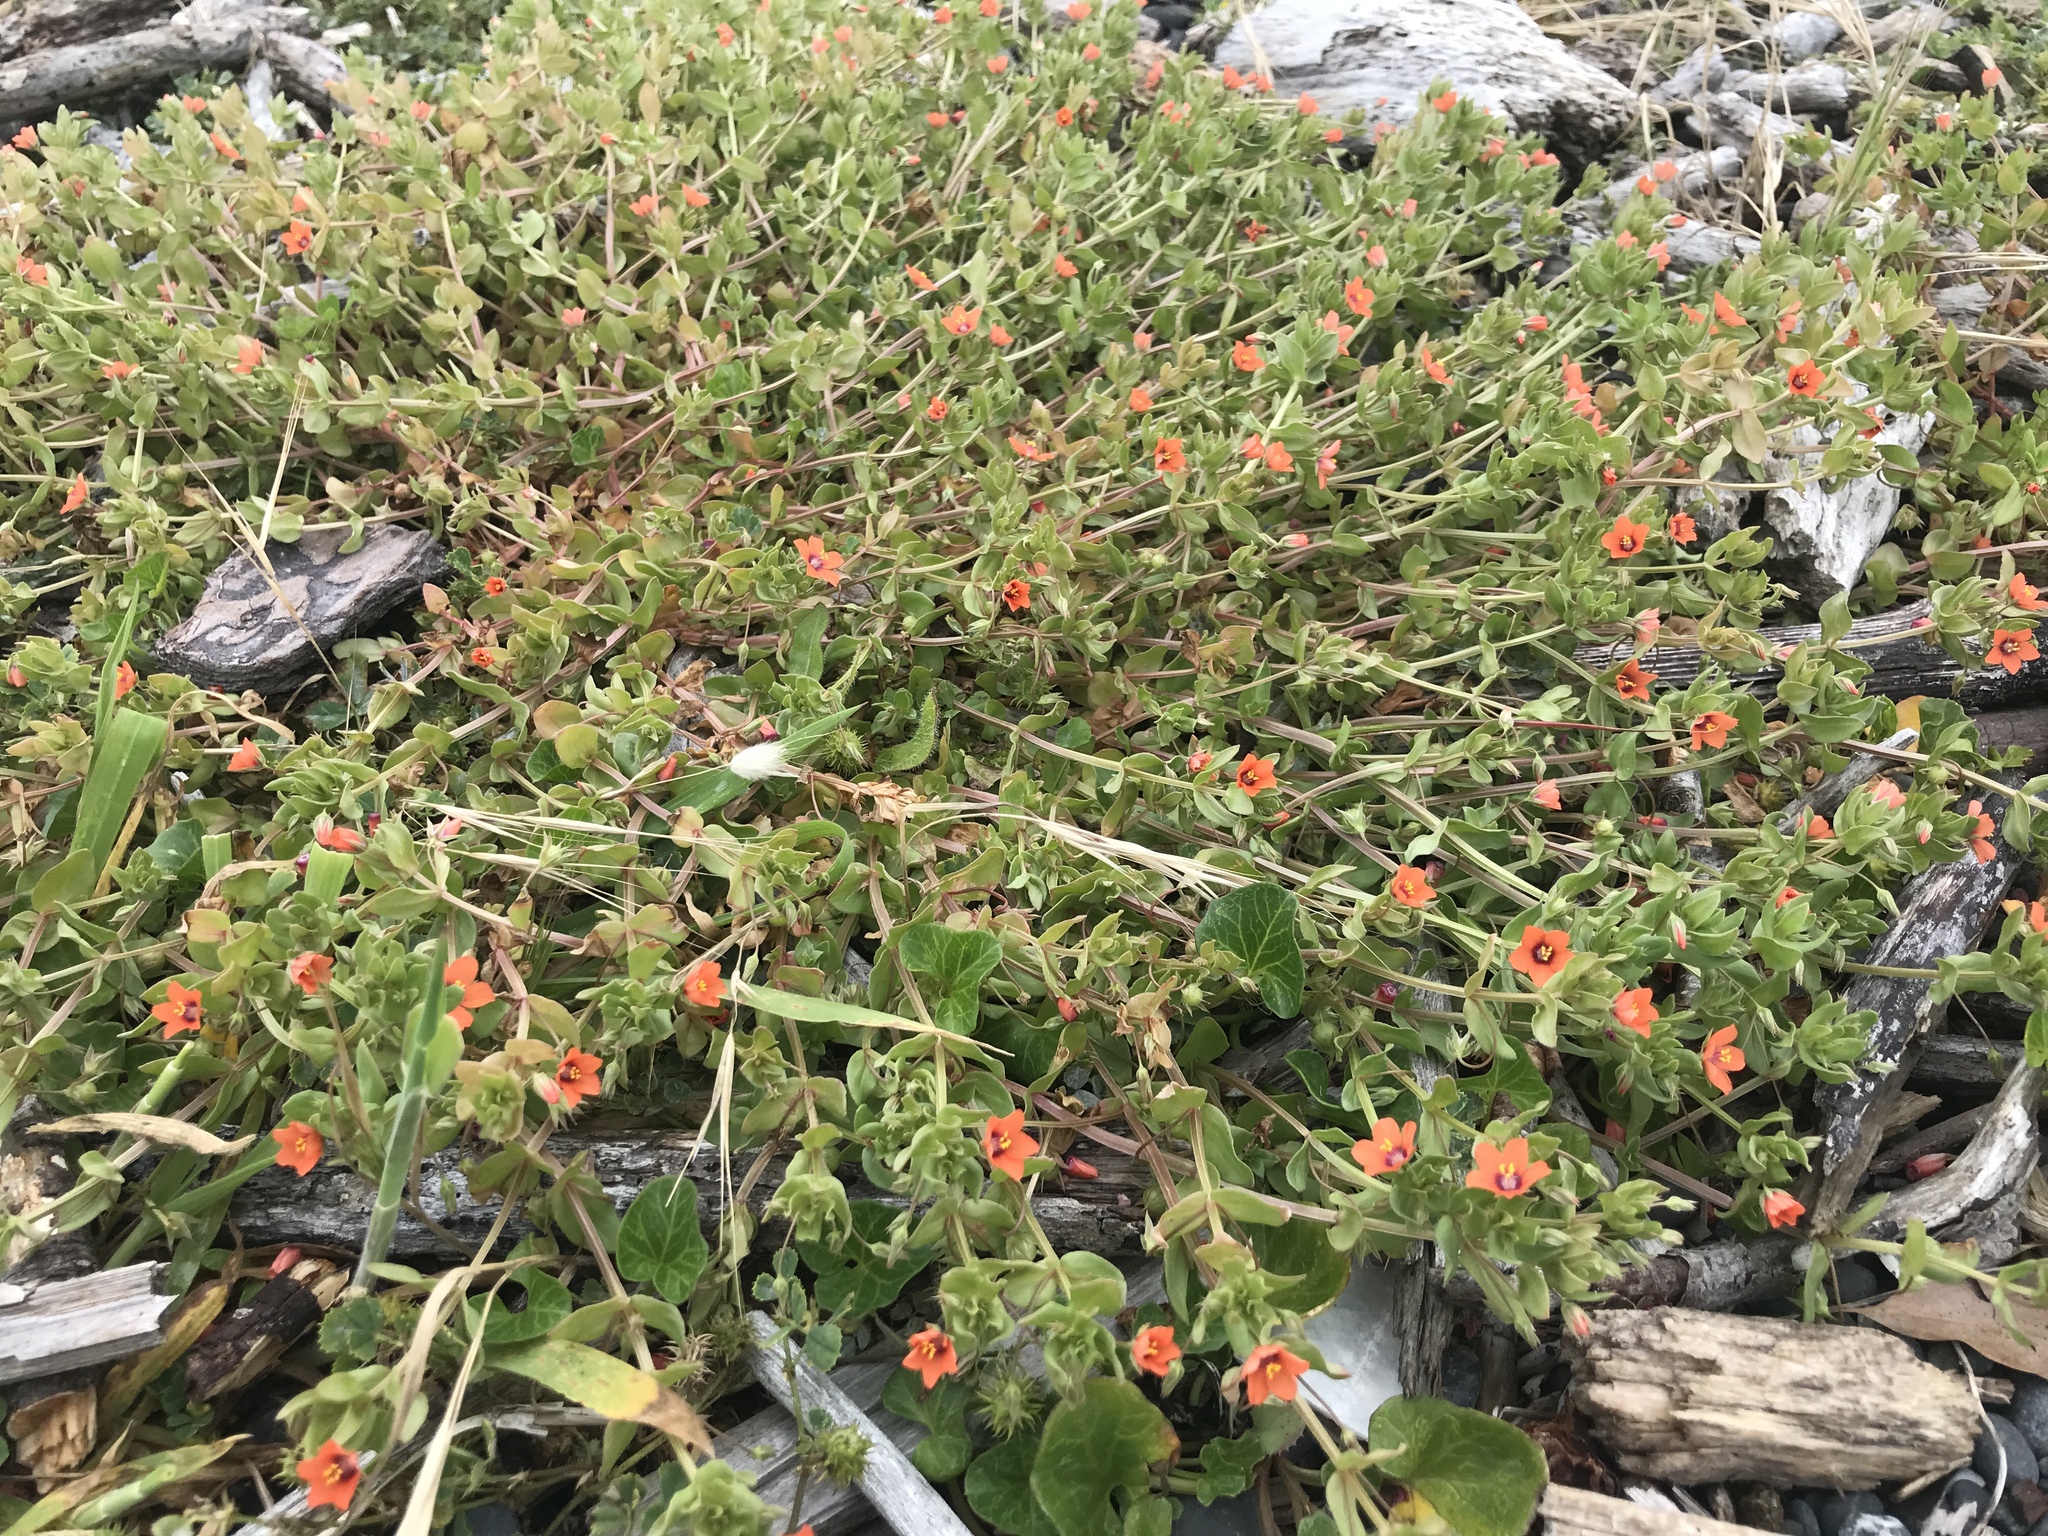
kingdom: Plantae
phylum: Tracheophyta
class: Magnoliopsida
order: Ericales
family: Primulaceae
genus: Lysimachia
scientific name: Lysimachia arvensis
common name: Scarlet pimpernel
